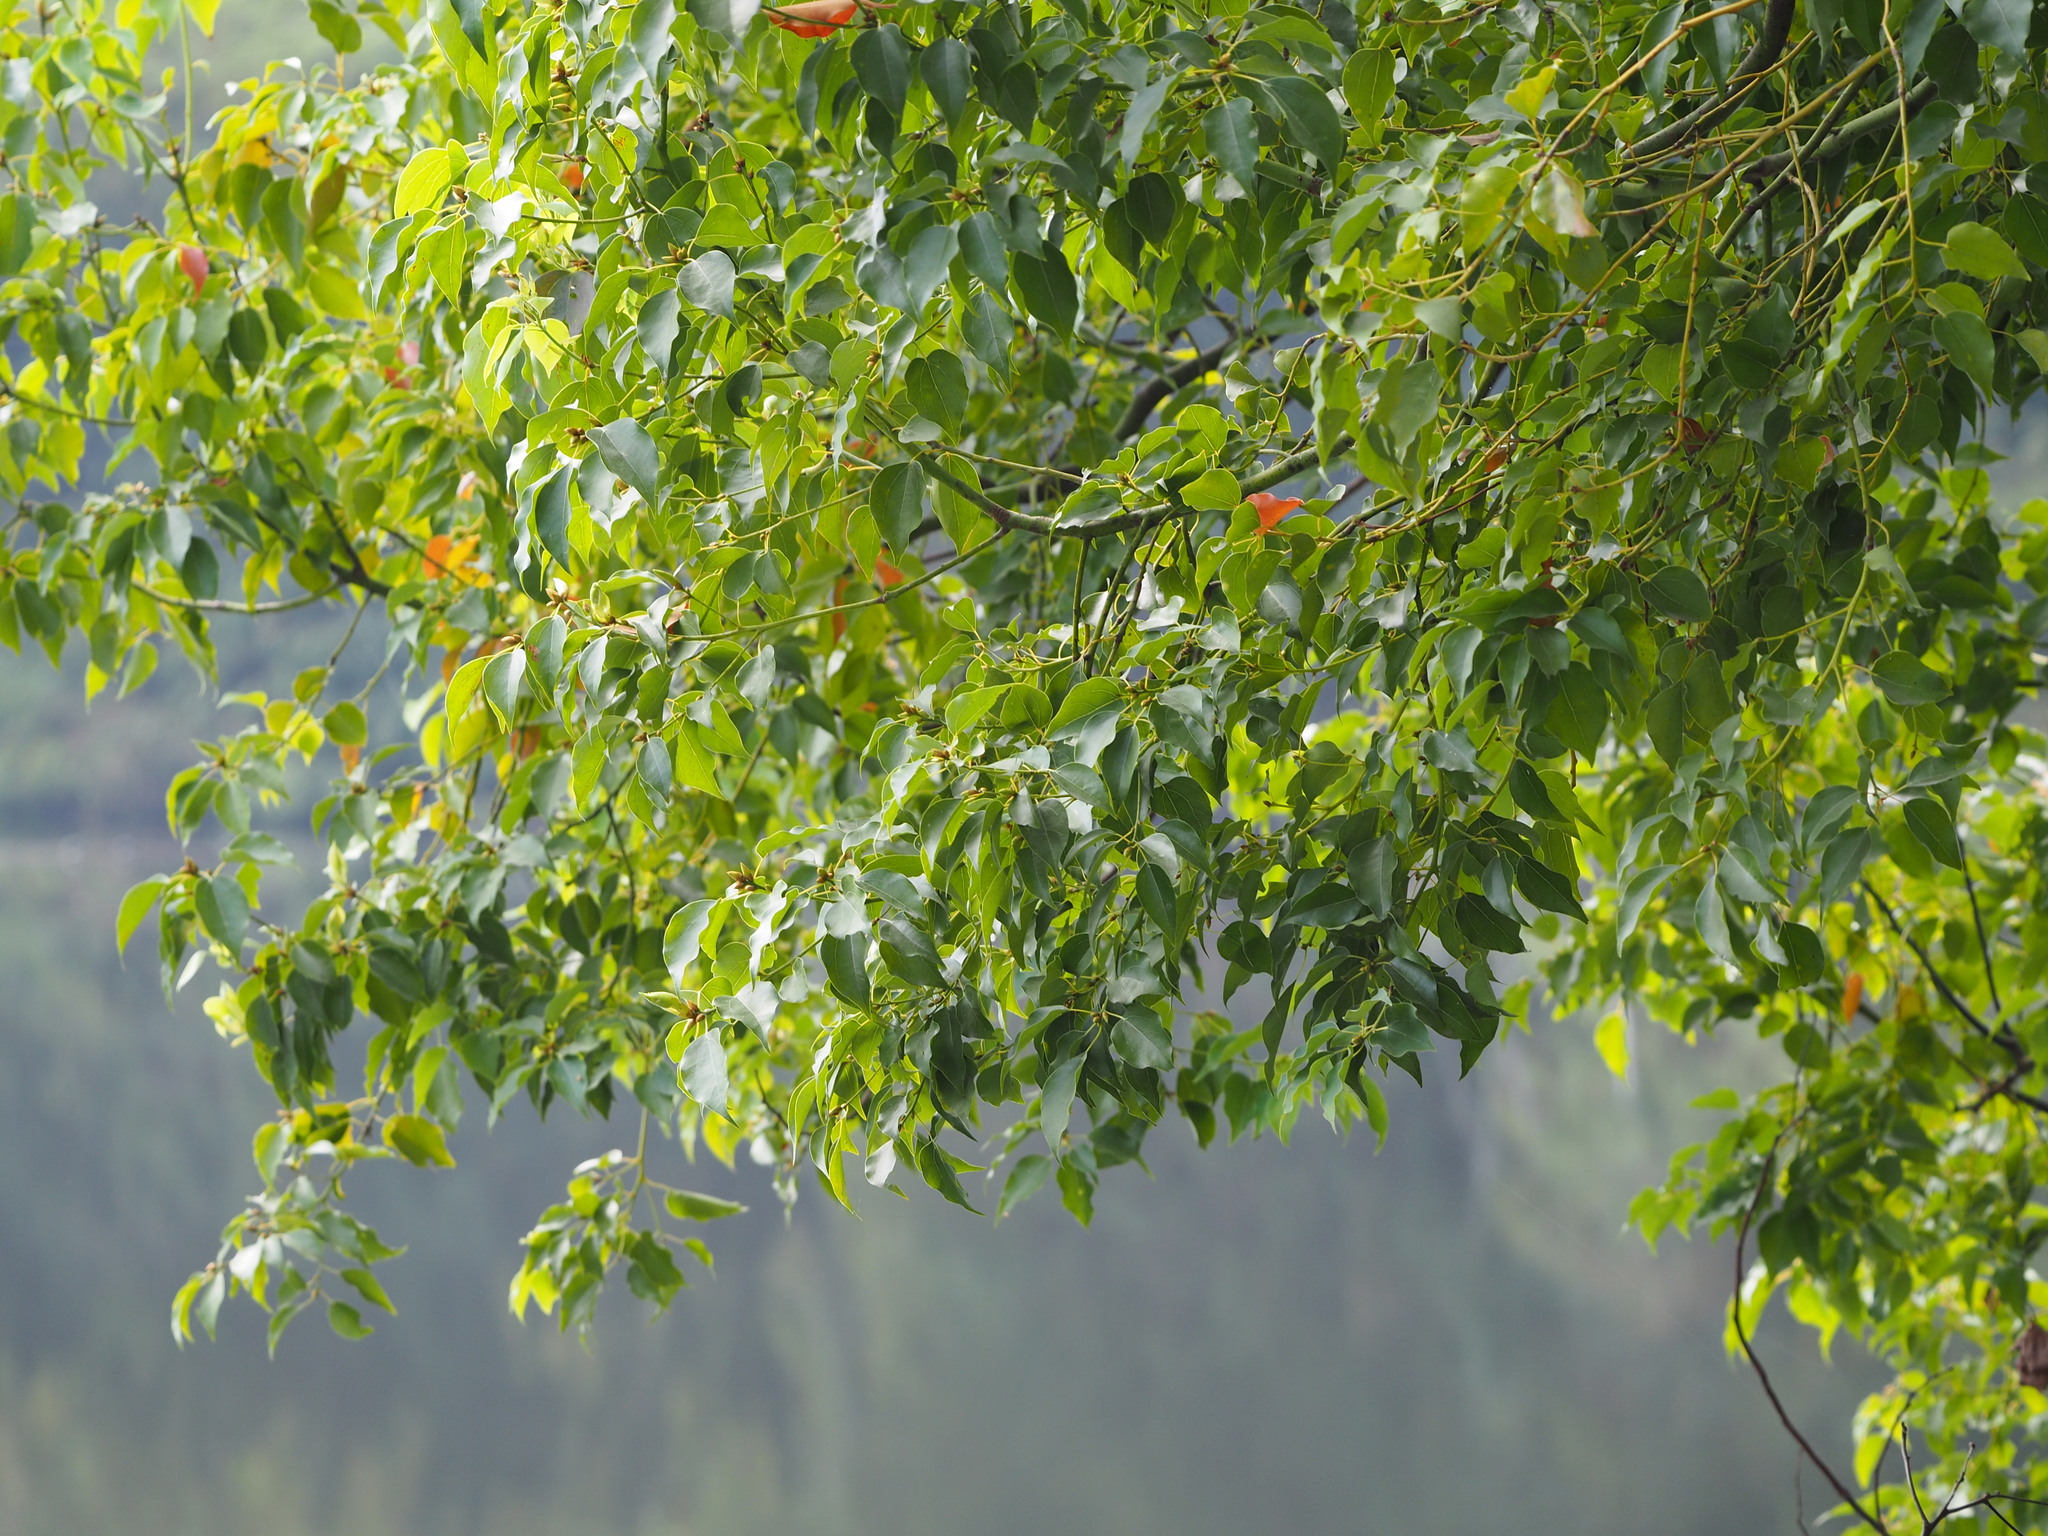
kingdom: Plantae
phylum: Tracheophyta
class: Magnoliopsida
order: Laurales
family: Lauraceae
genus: Cinnamomum
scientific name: Cinnamomum camphora
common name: Camphortree
